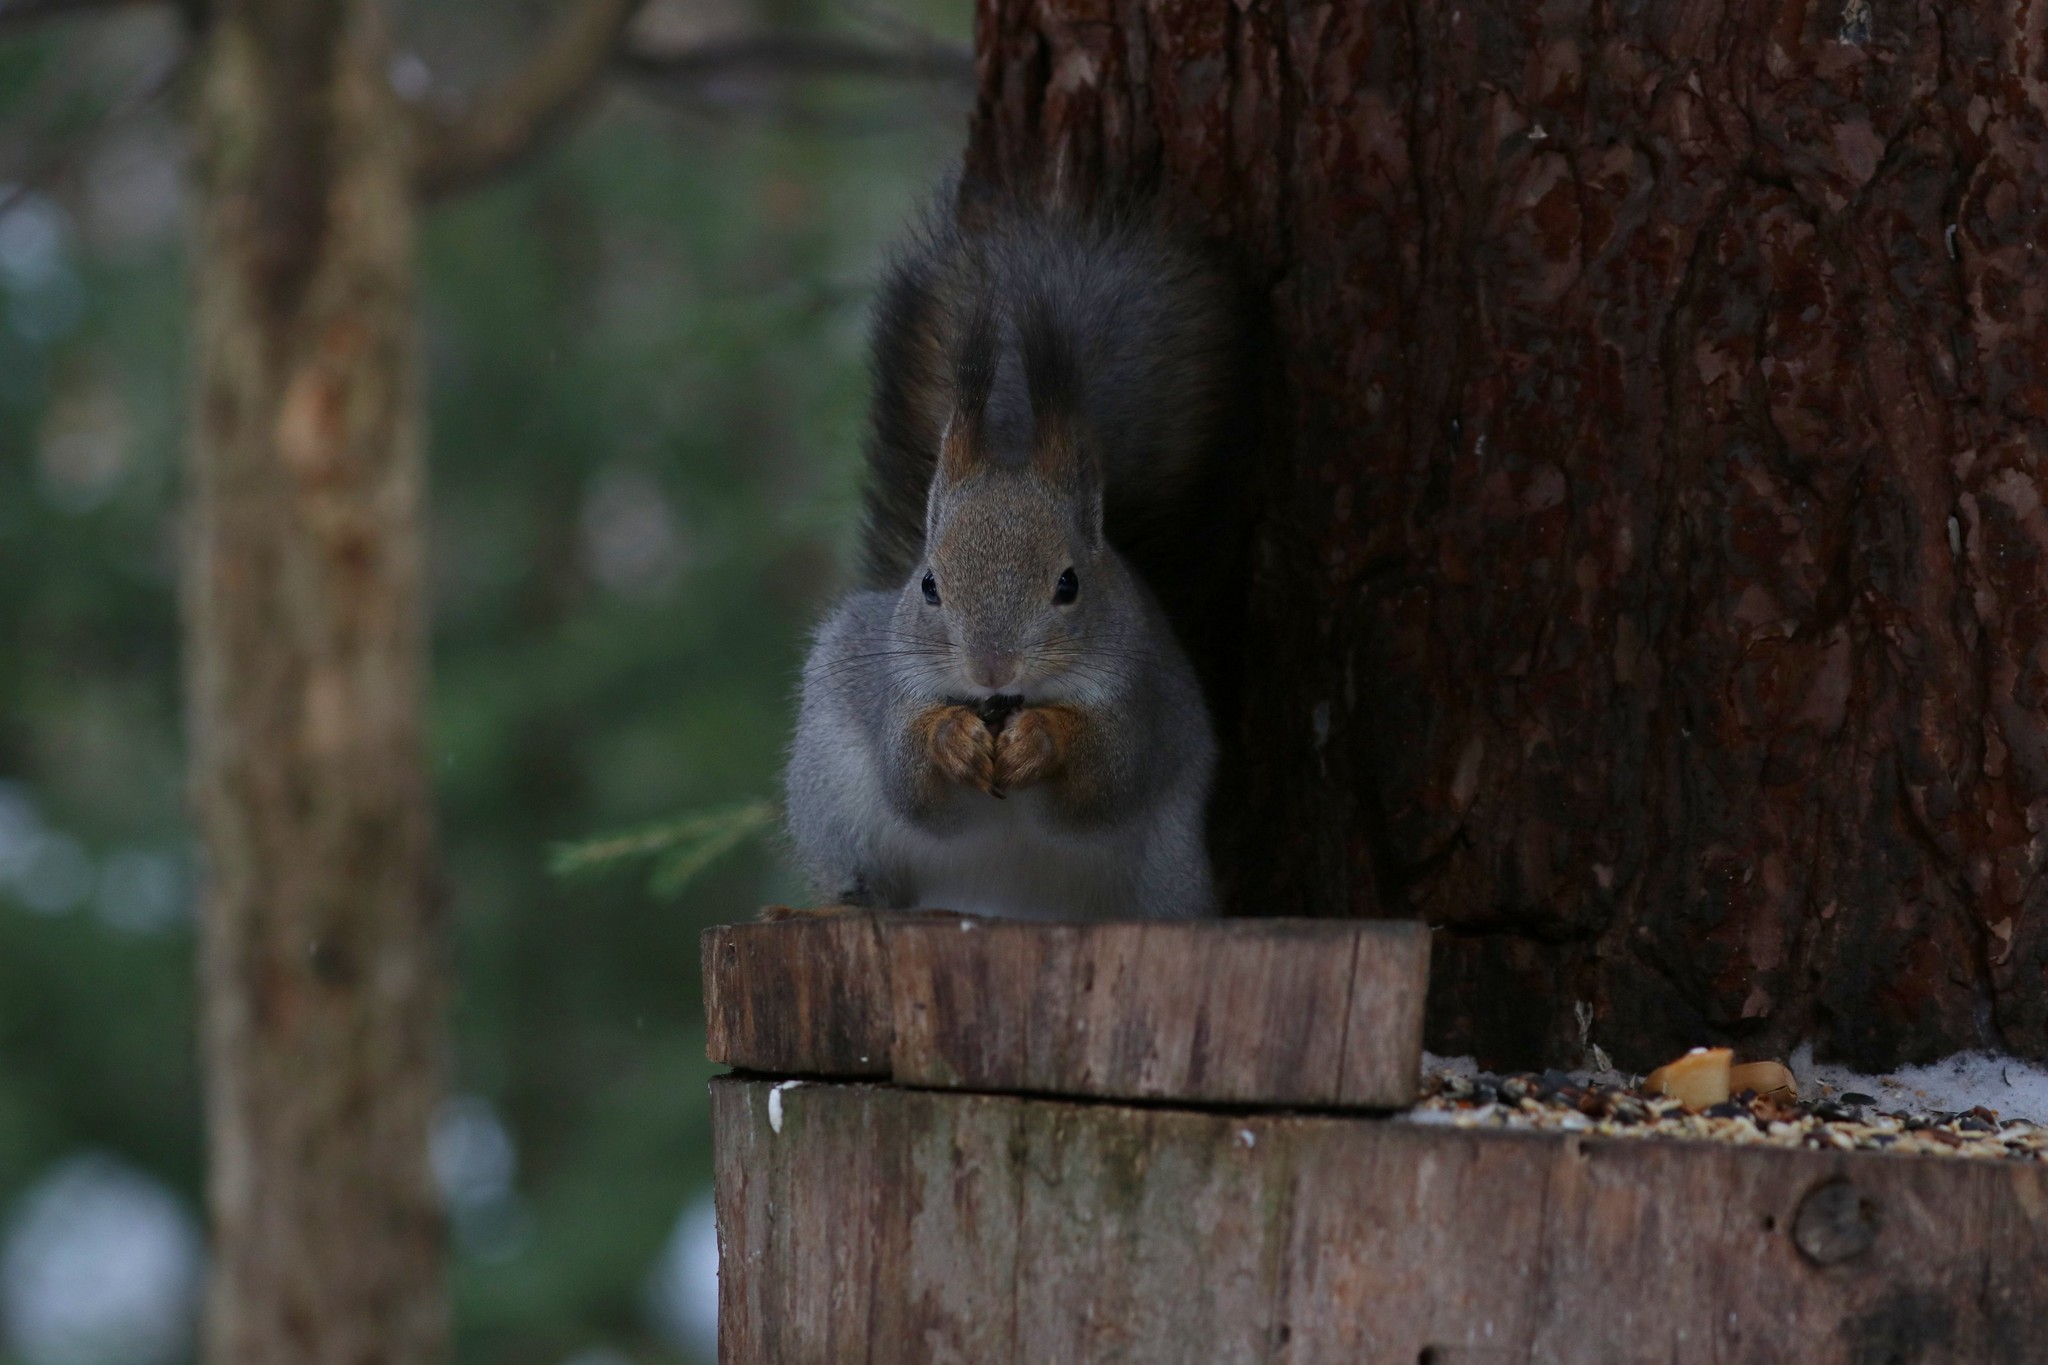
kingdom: Animalia
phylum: Chordata
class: Mammalia
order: Rodentia
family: Sciuridae
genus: Sciurus
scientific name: Sciurus vulgaris
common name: Eurasian red squirrel
